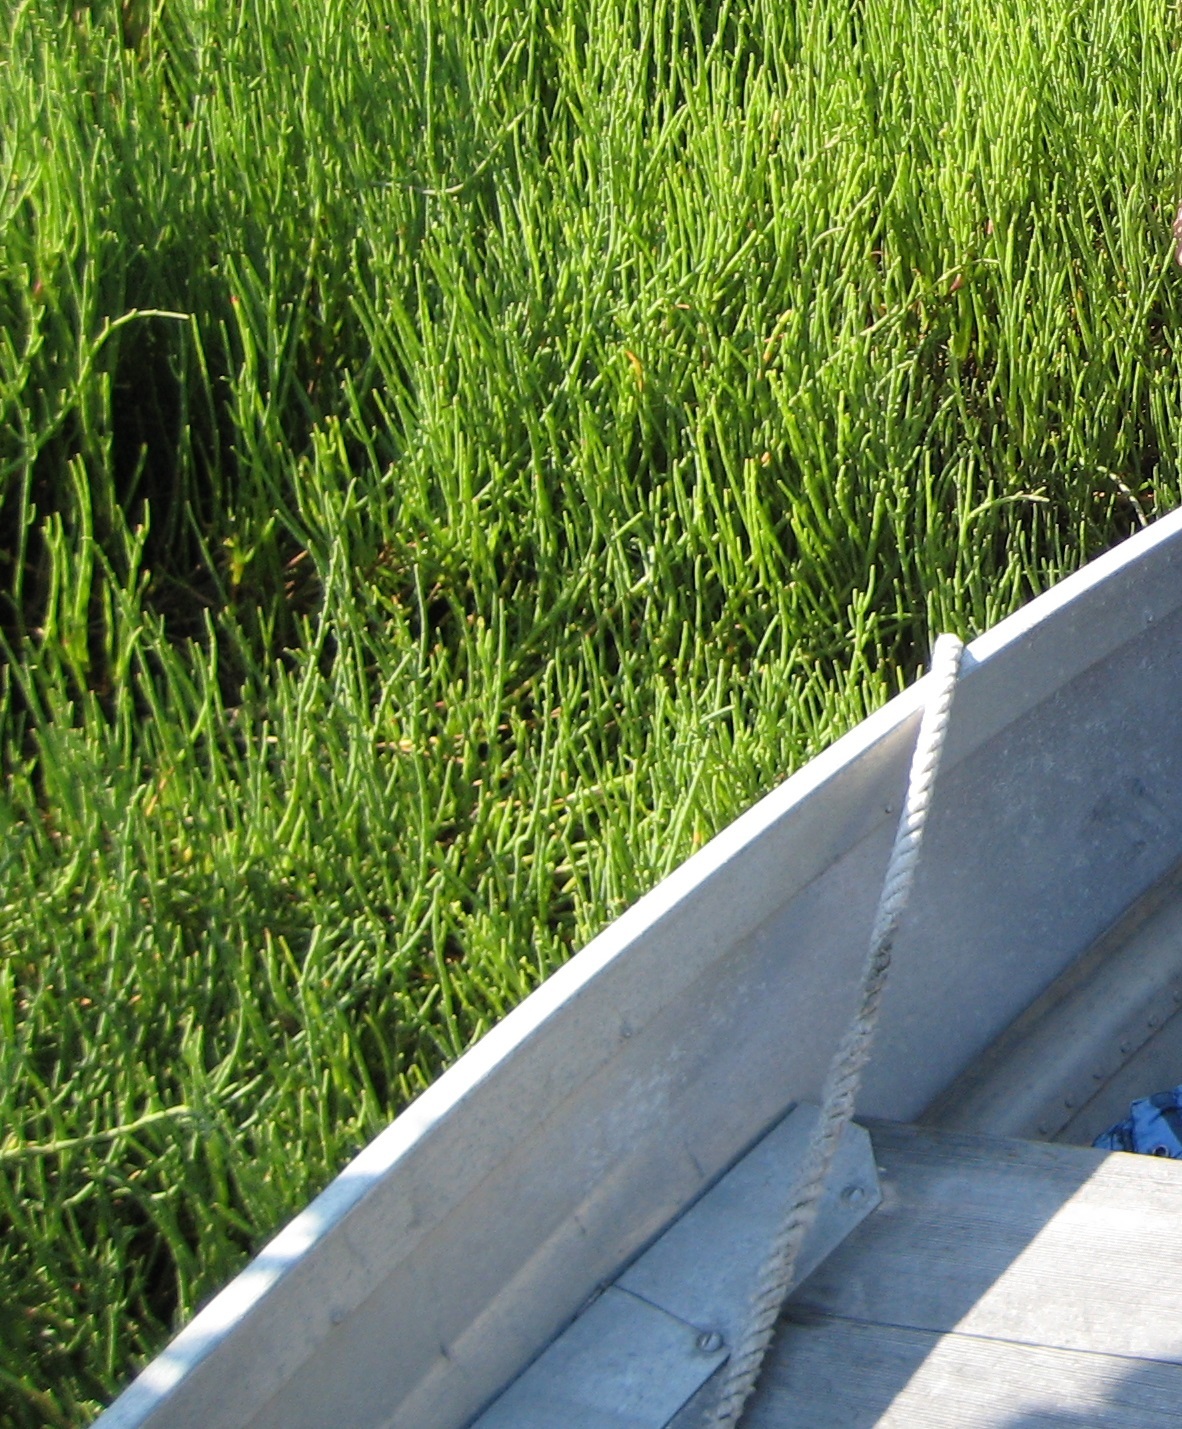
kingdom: Plantae
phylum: Tracheophyta
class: Magnoliopsida
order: Caryophyllales
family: Amaranthaceae
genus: Salicornia
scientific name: Salicornia ambigua
